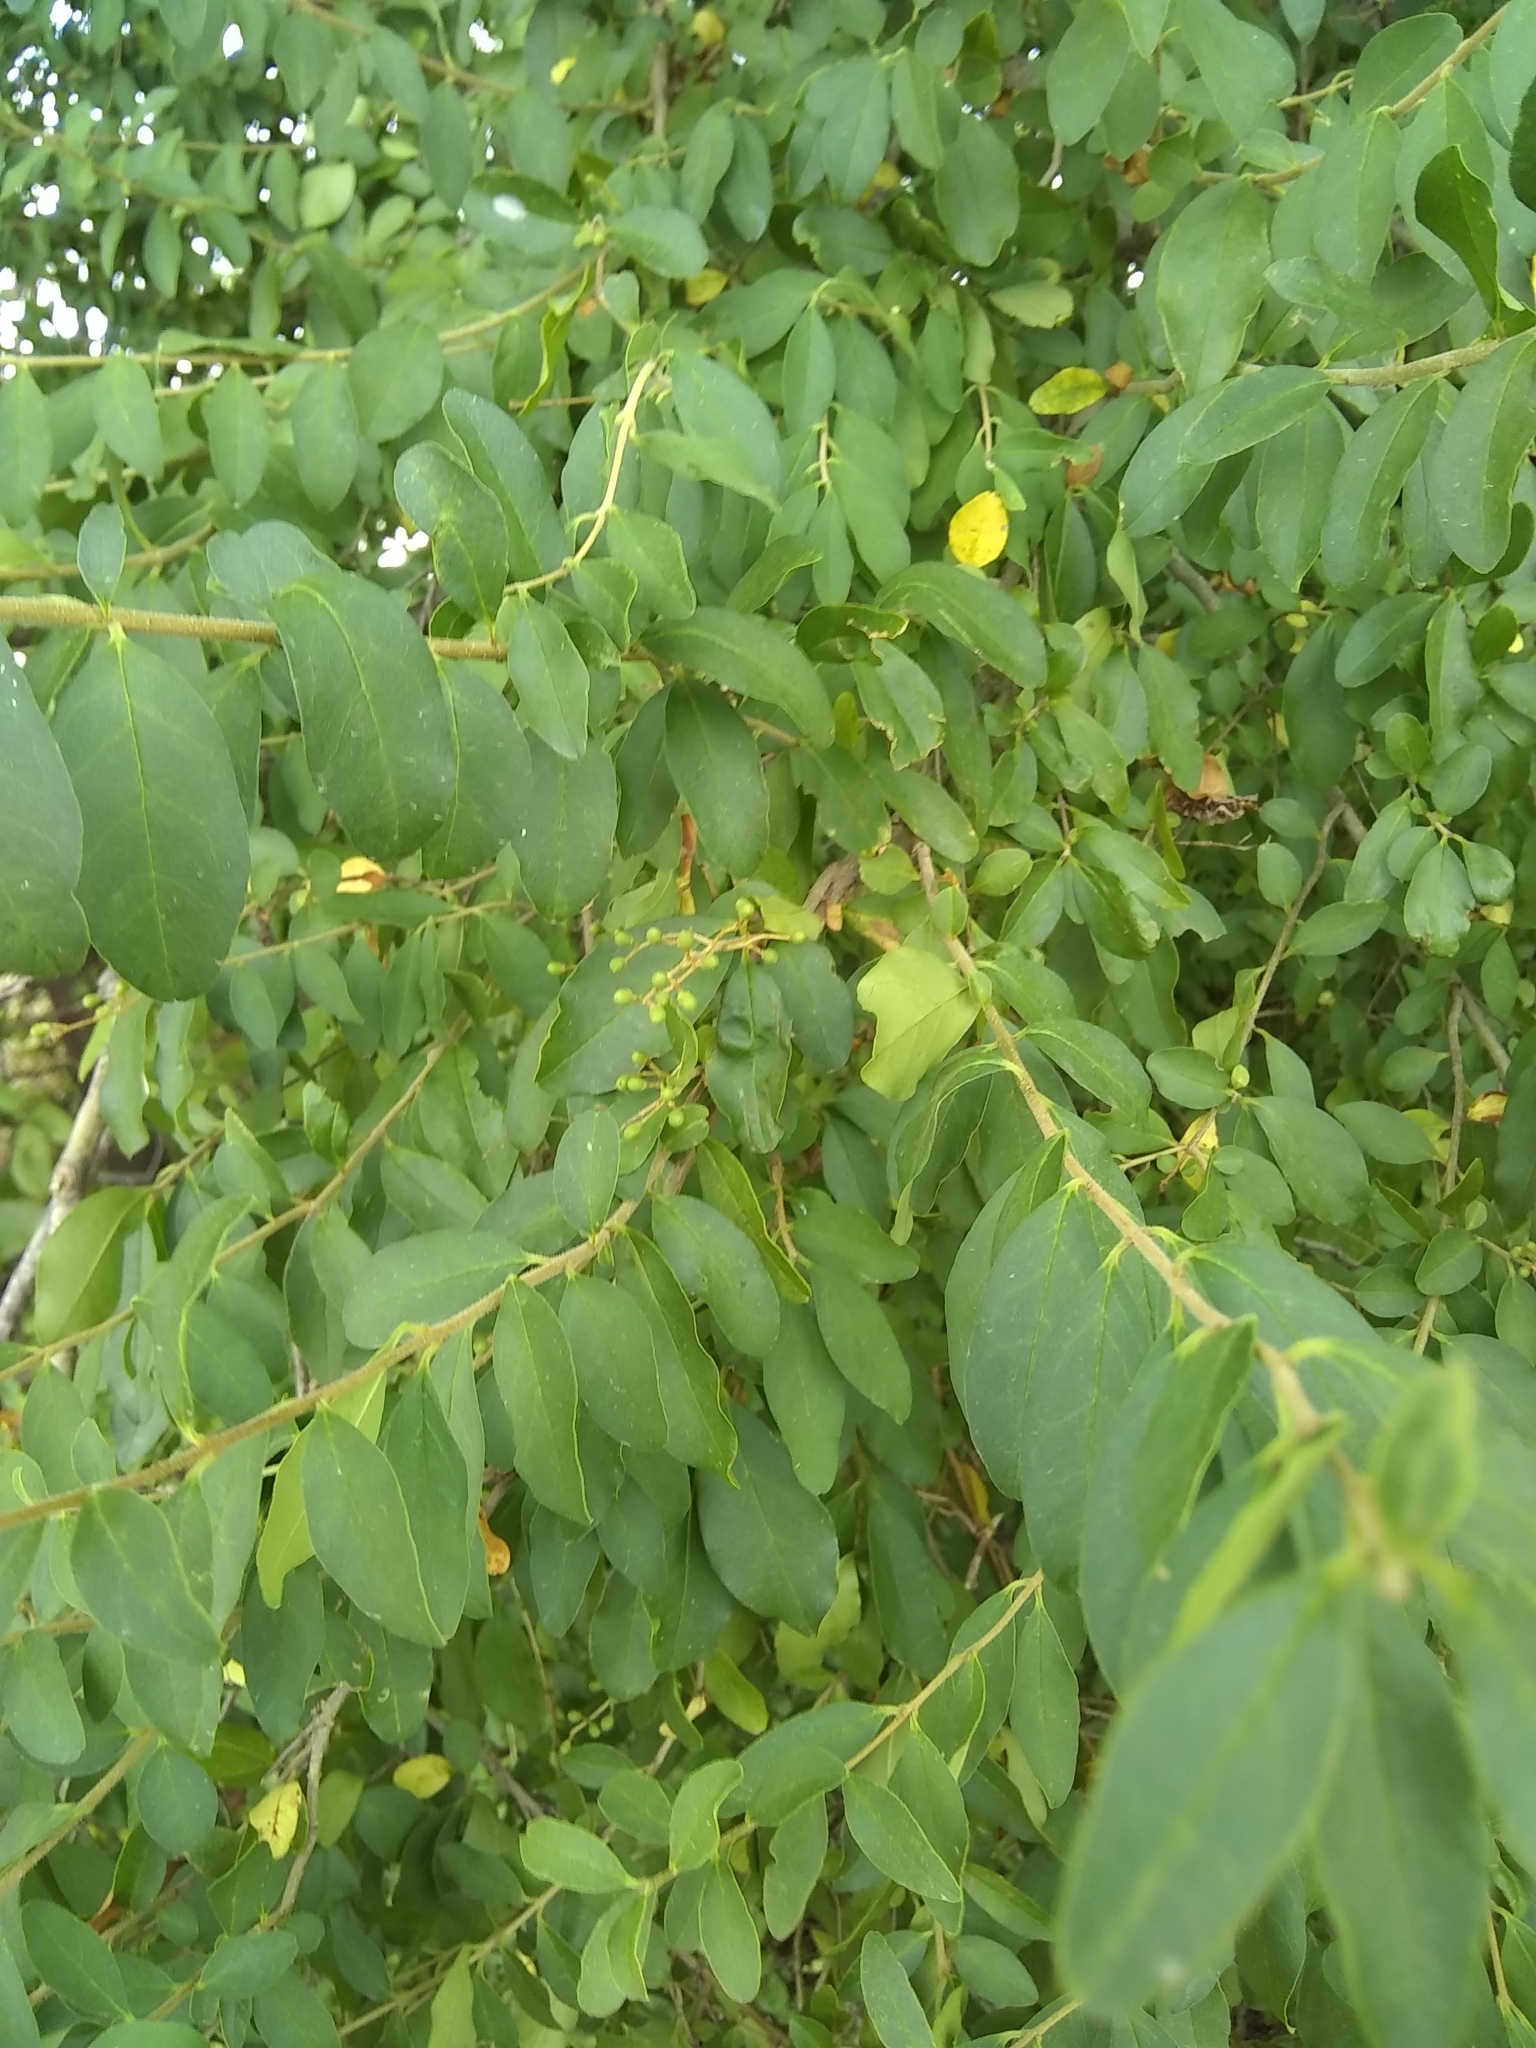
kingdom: Plantae
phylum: Tracheophyta
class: Magnoliopsida
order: Lamiales
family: Oleaceae
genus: Ligustrum
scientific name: Ligustrum sinense
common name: Chinese privet
